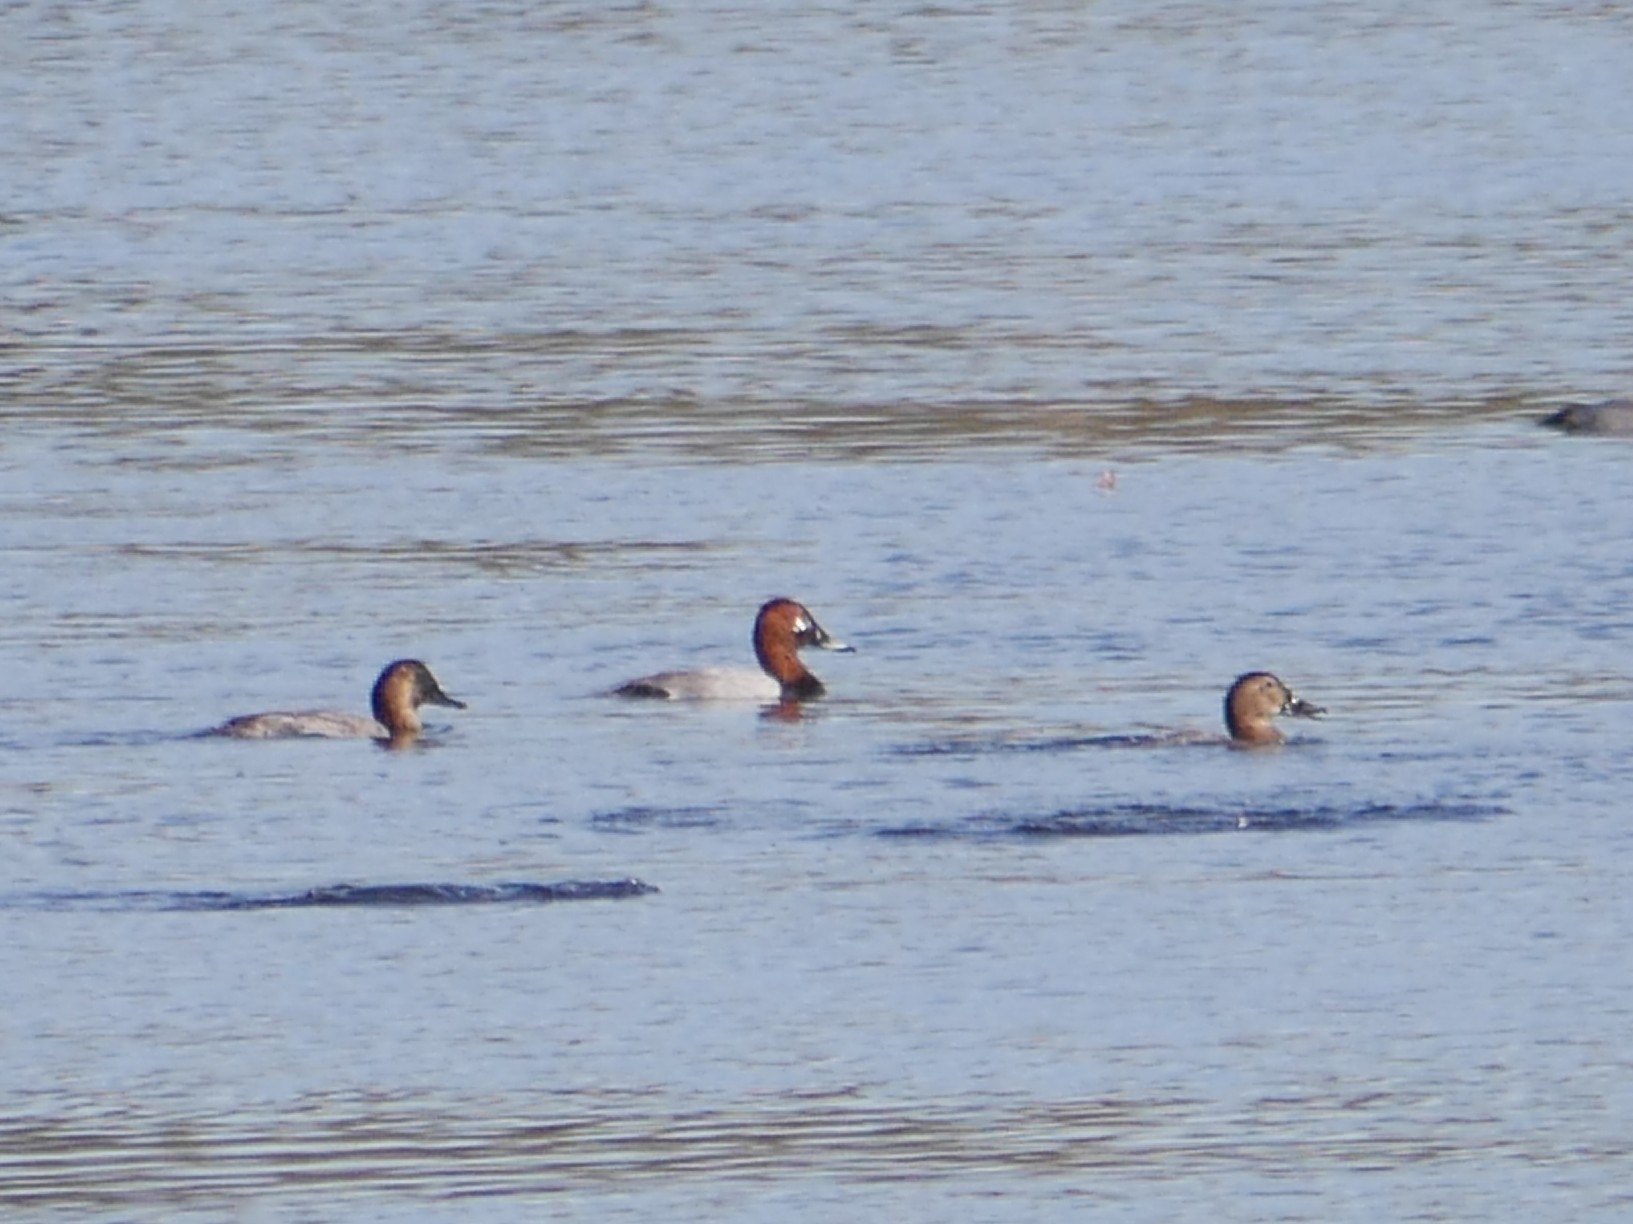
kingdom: Animalia
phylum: Chordata
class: Aves
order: Anseriformes
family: Anatidae
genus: Aythya
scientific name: Aythya ferina
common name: Common pochard
